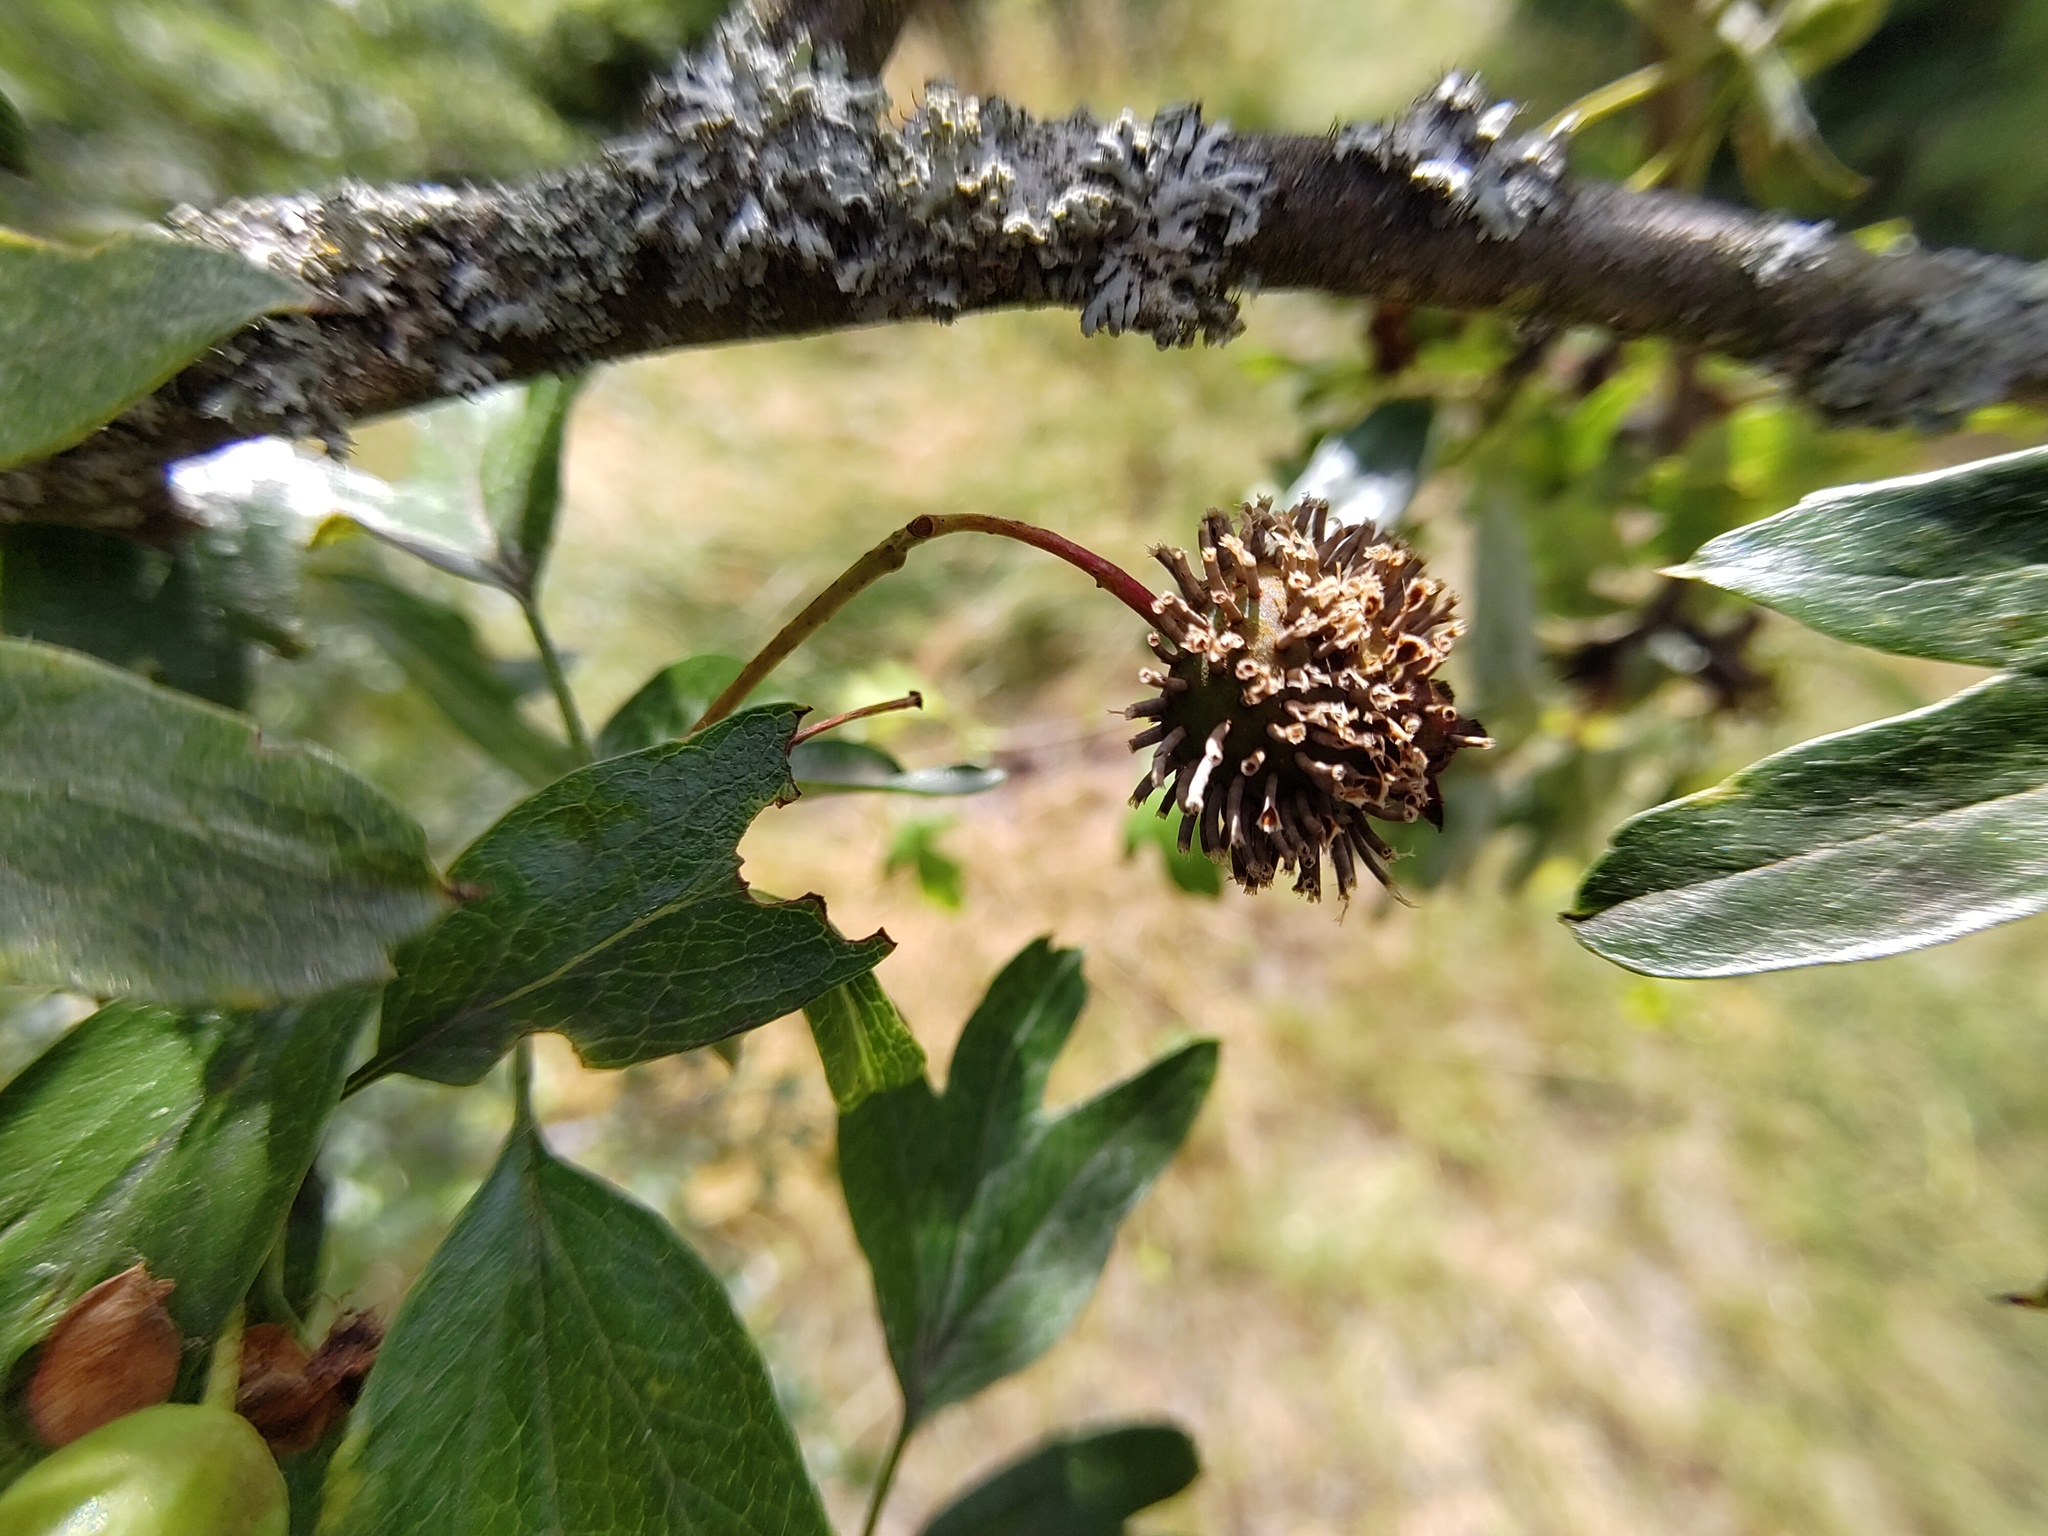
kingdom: Fungi
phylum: Basidiomycota
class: Pucciniomycetes
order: Pucciniales
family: Gymnosporangiaceae
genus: Gymnosporangium
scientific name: Gymnosporangium clavariiforme
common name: Tongues of fire
